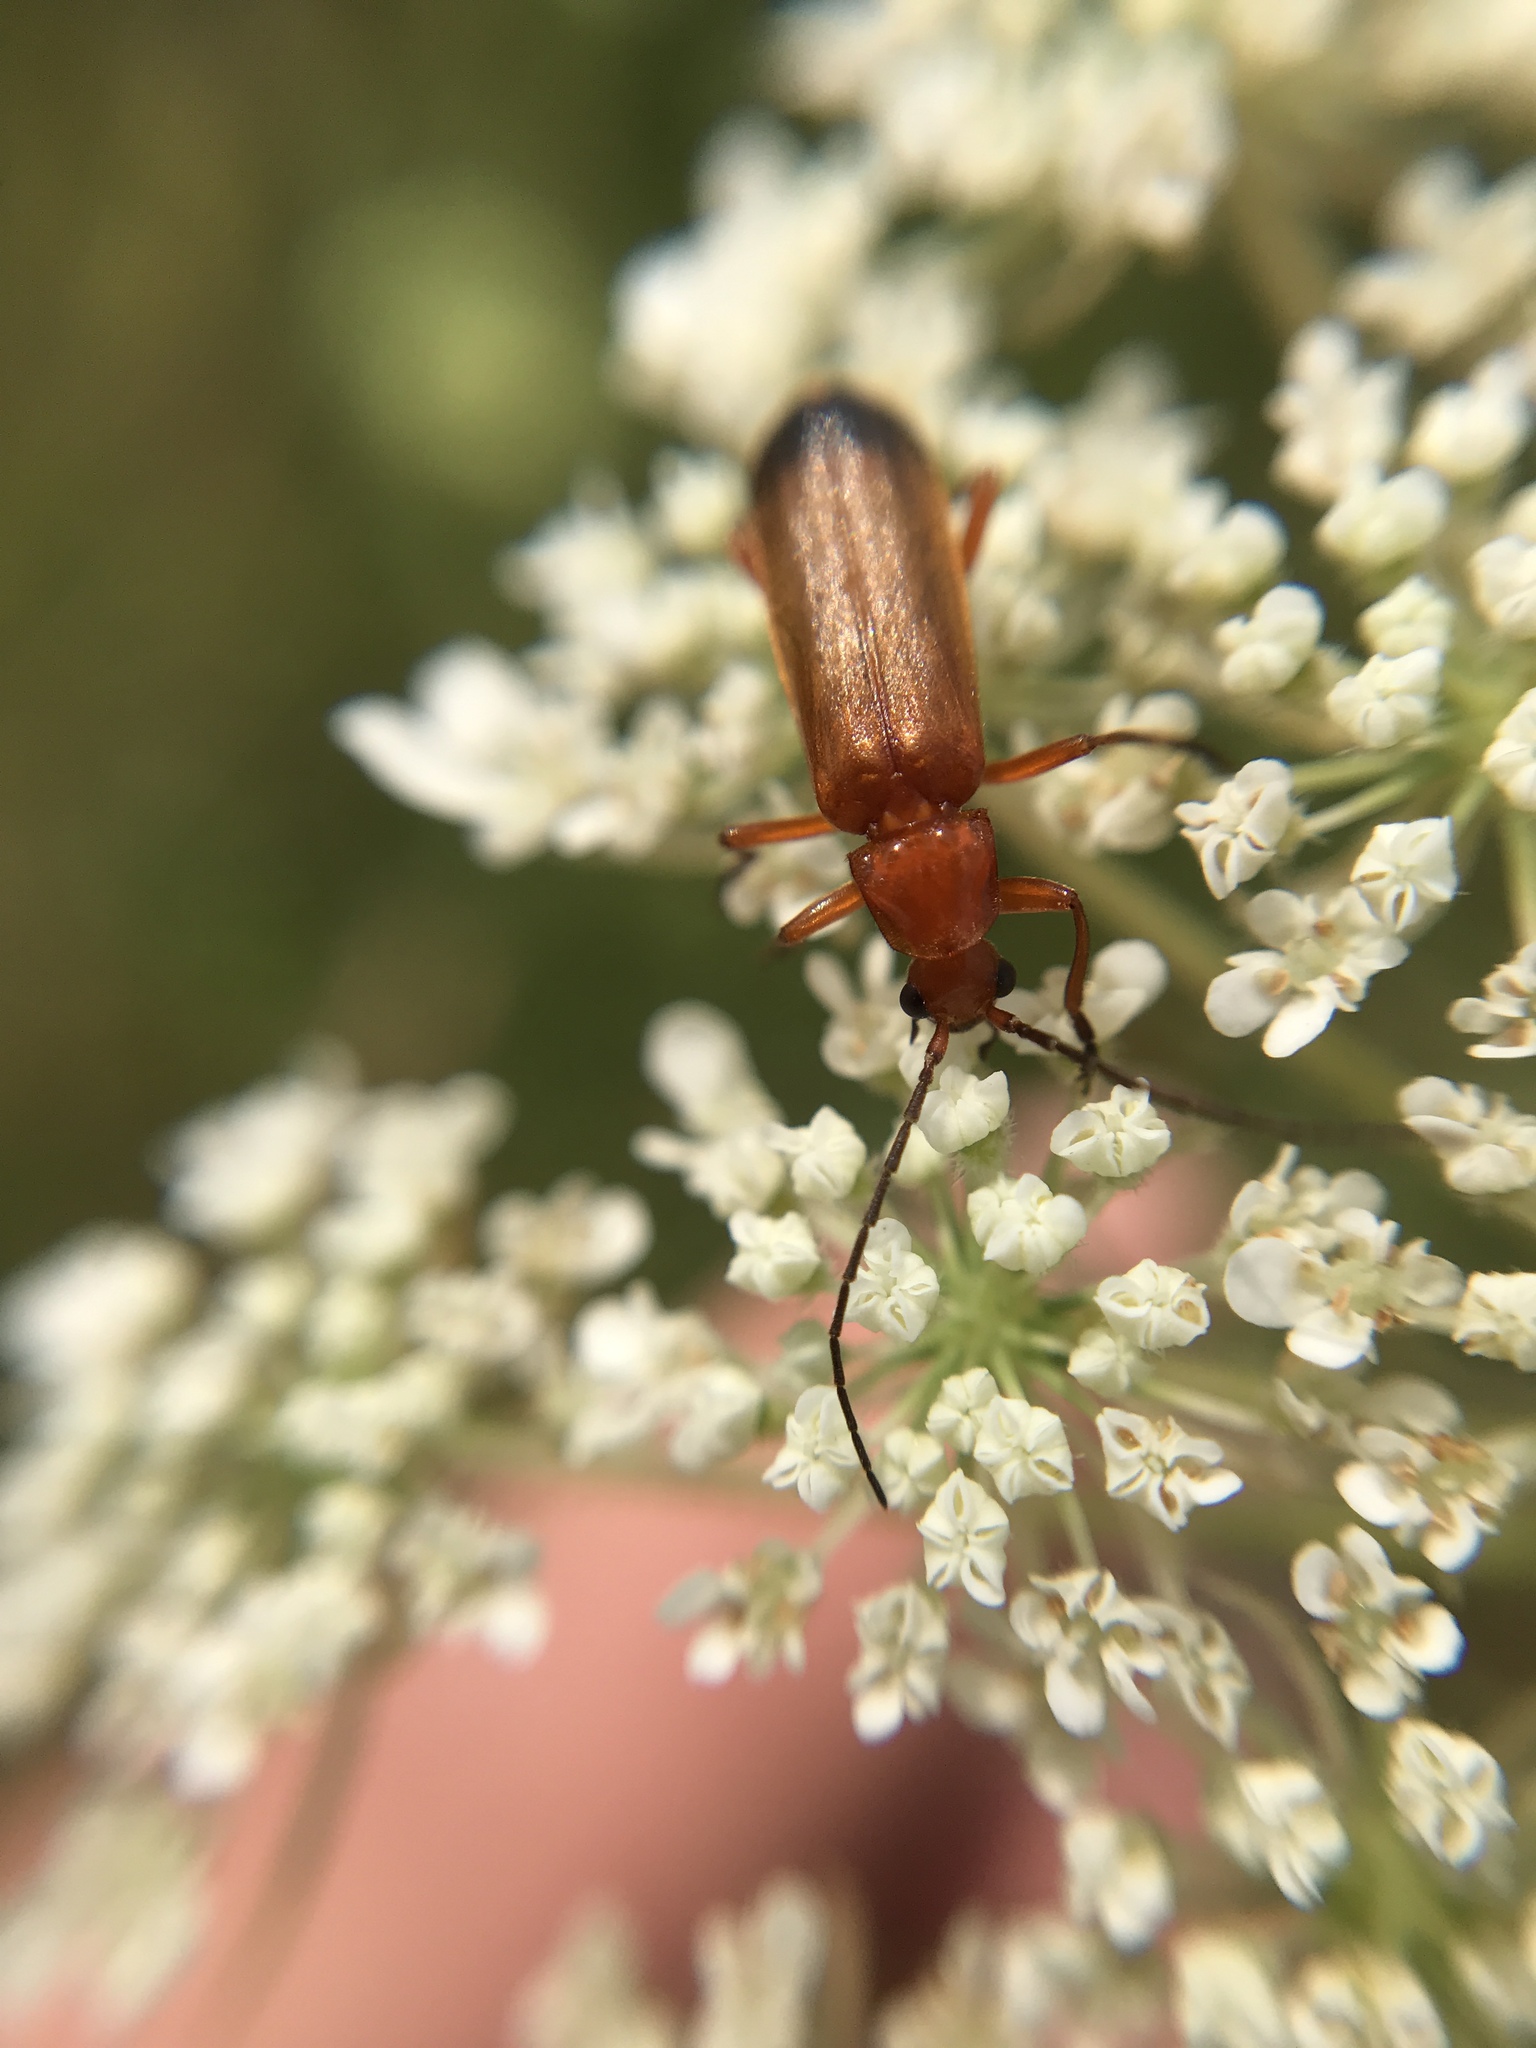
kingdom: Animalia
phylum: Arthropoda
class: Insecta
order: Coleoptera
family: Cantharidae
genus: Rhagonycha
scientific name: Rhagonycha fulva
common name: Common red soldier beetle
